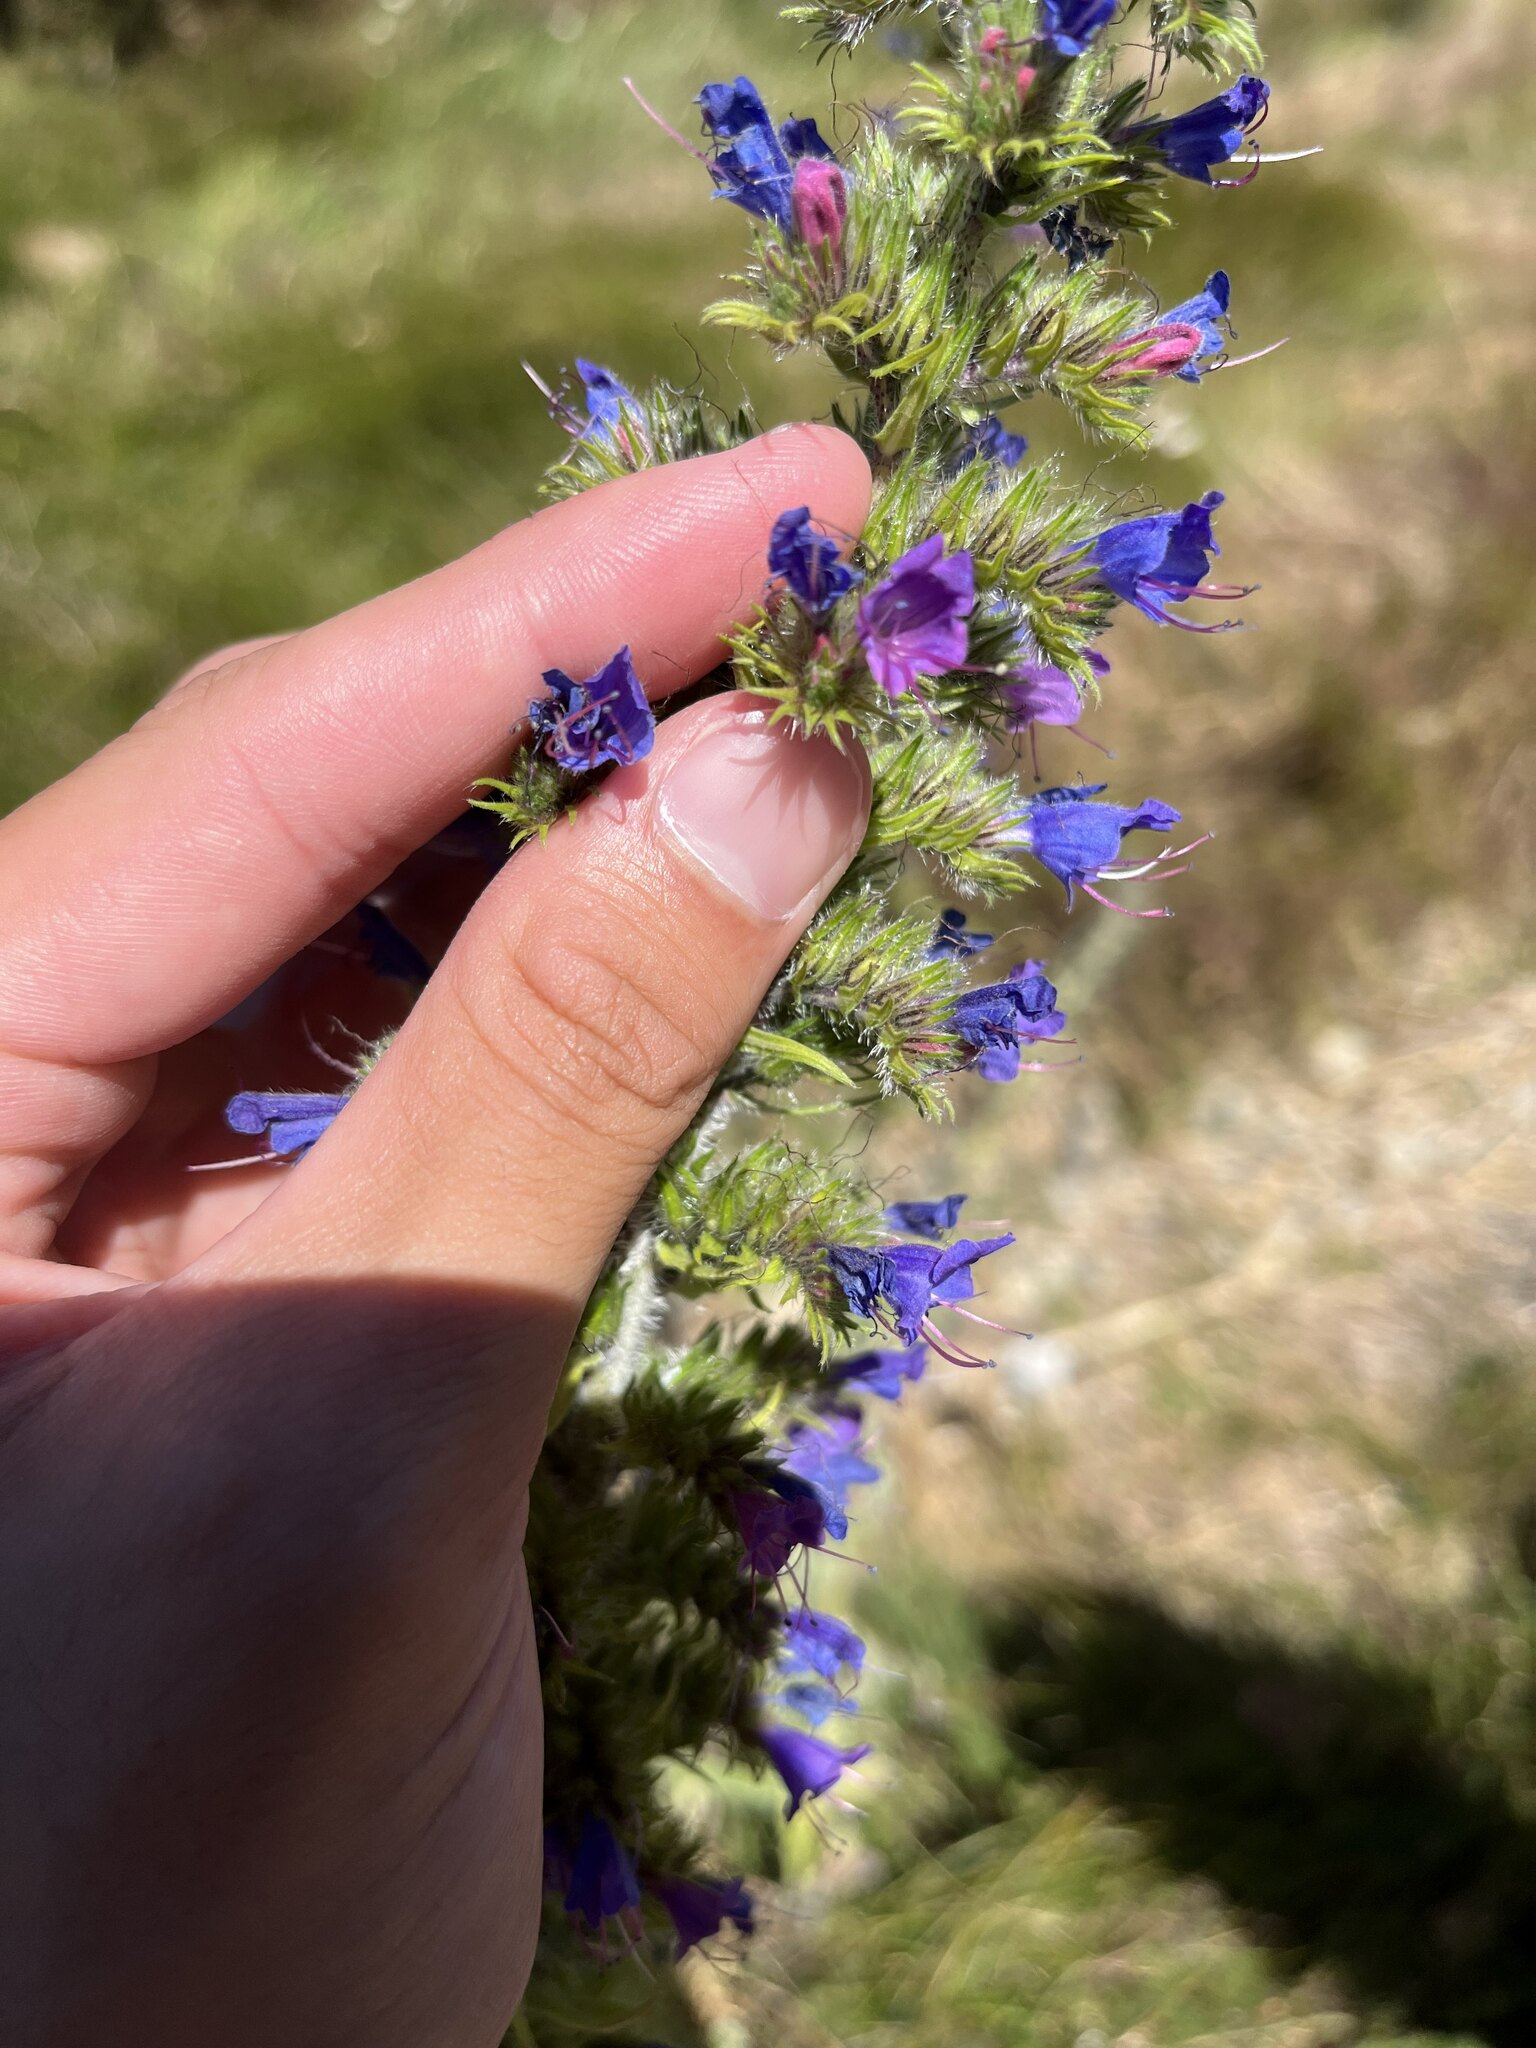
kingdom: Plantae
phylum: Tracheophyta
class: Magnoliopsida
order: Boraginales
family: Boraginaceae
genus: Echium
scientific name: Echium vulgare
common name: Common viper's bugloss
